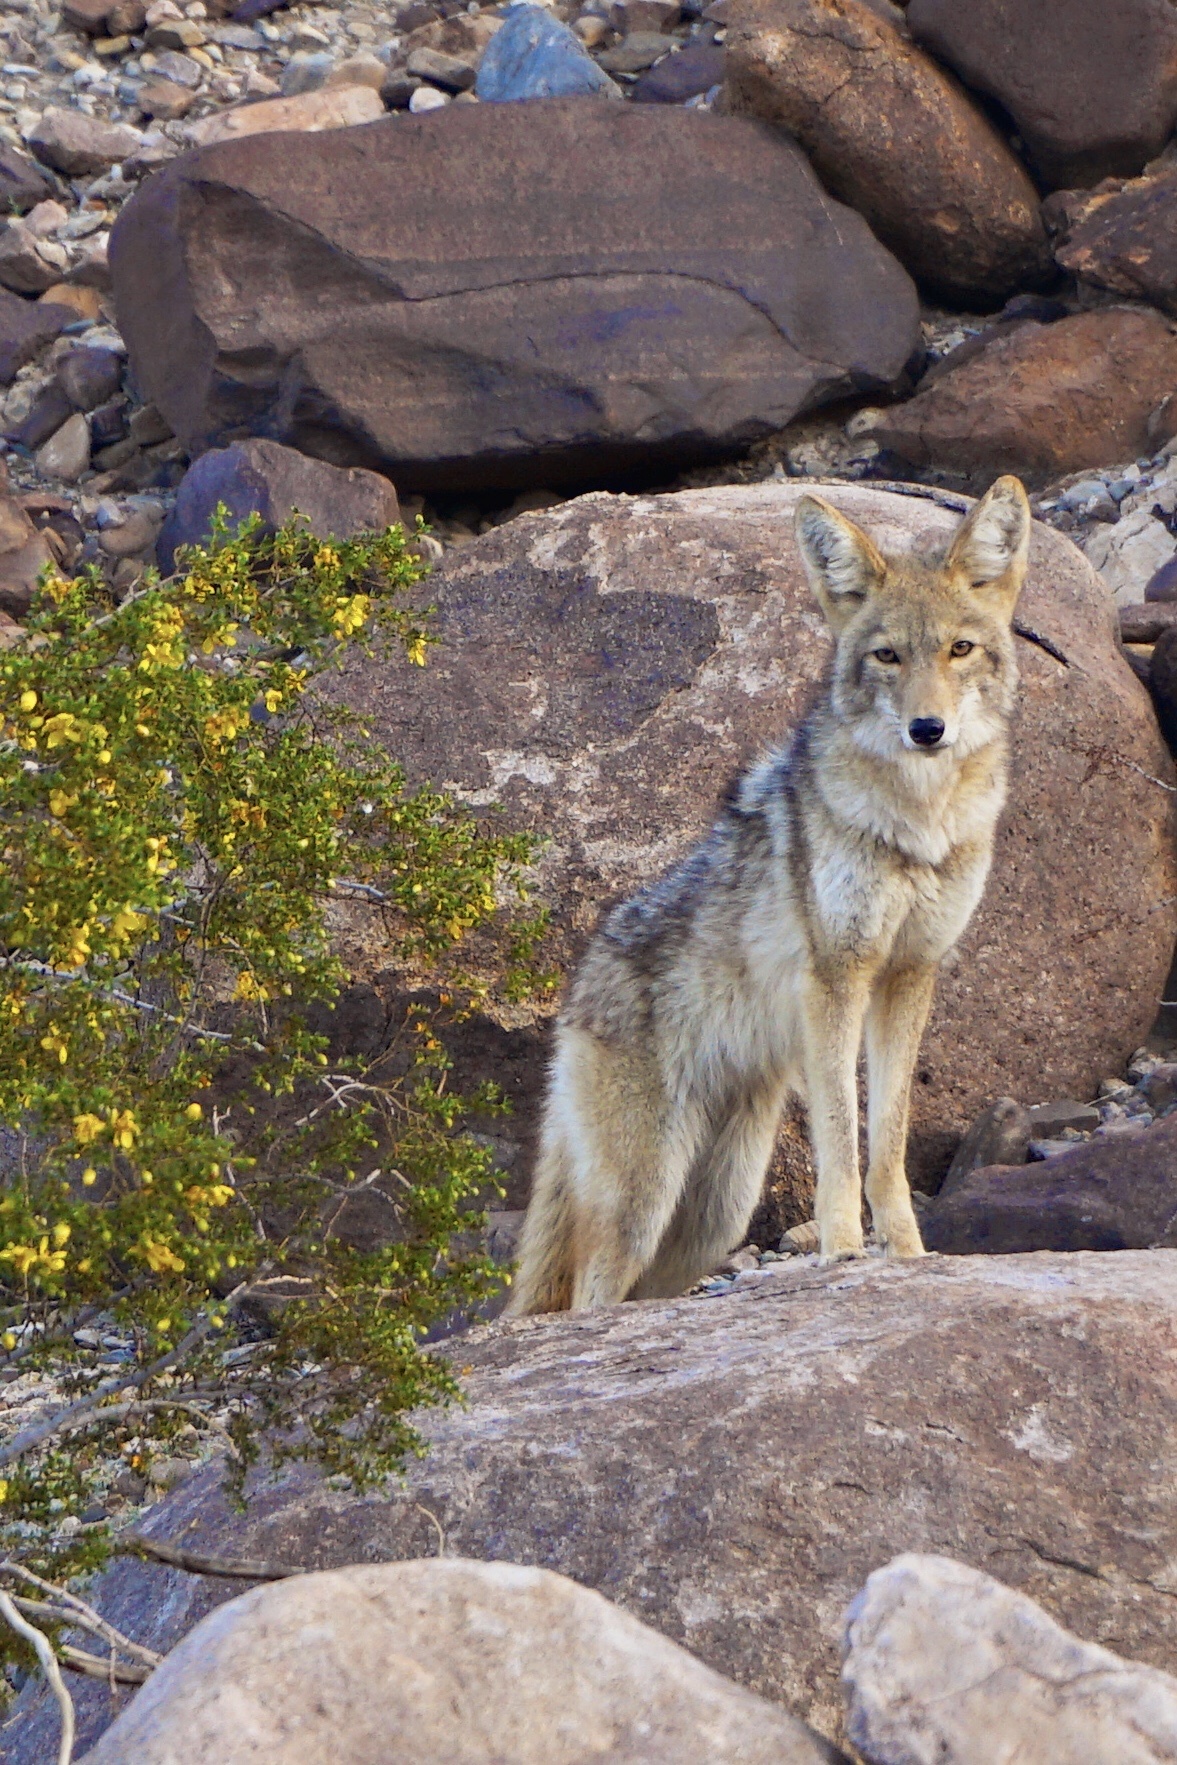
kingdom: Animalia
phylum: Chordata
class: Mammalia
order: Carnivora
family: Canidae
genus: Canis
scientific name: Canis latrans
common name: Coyote
